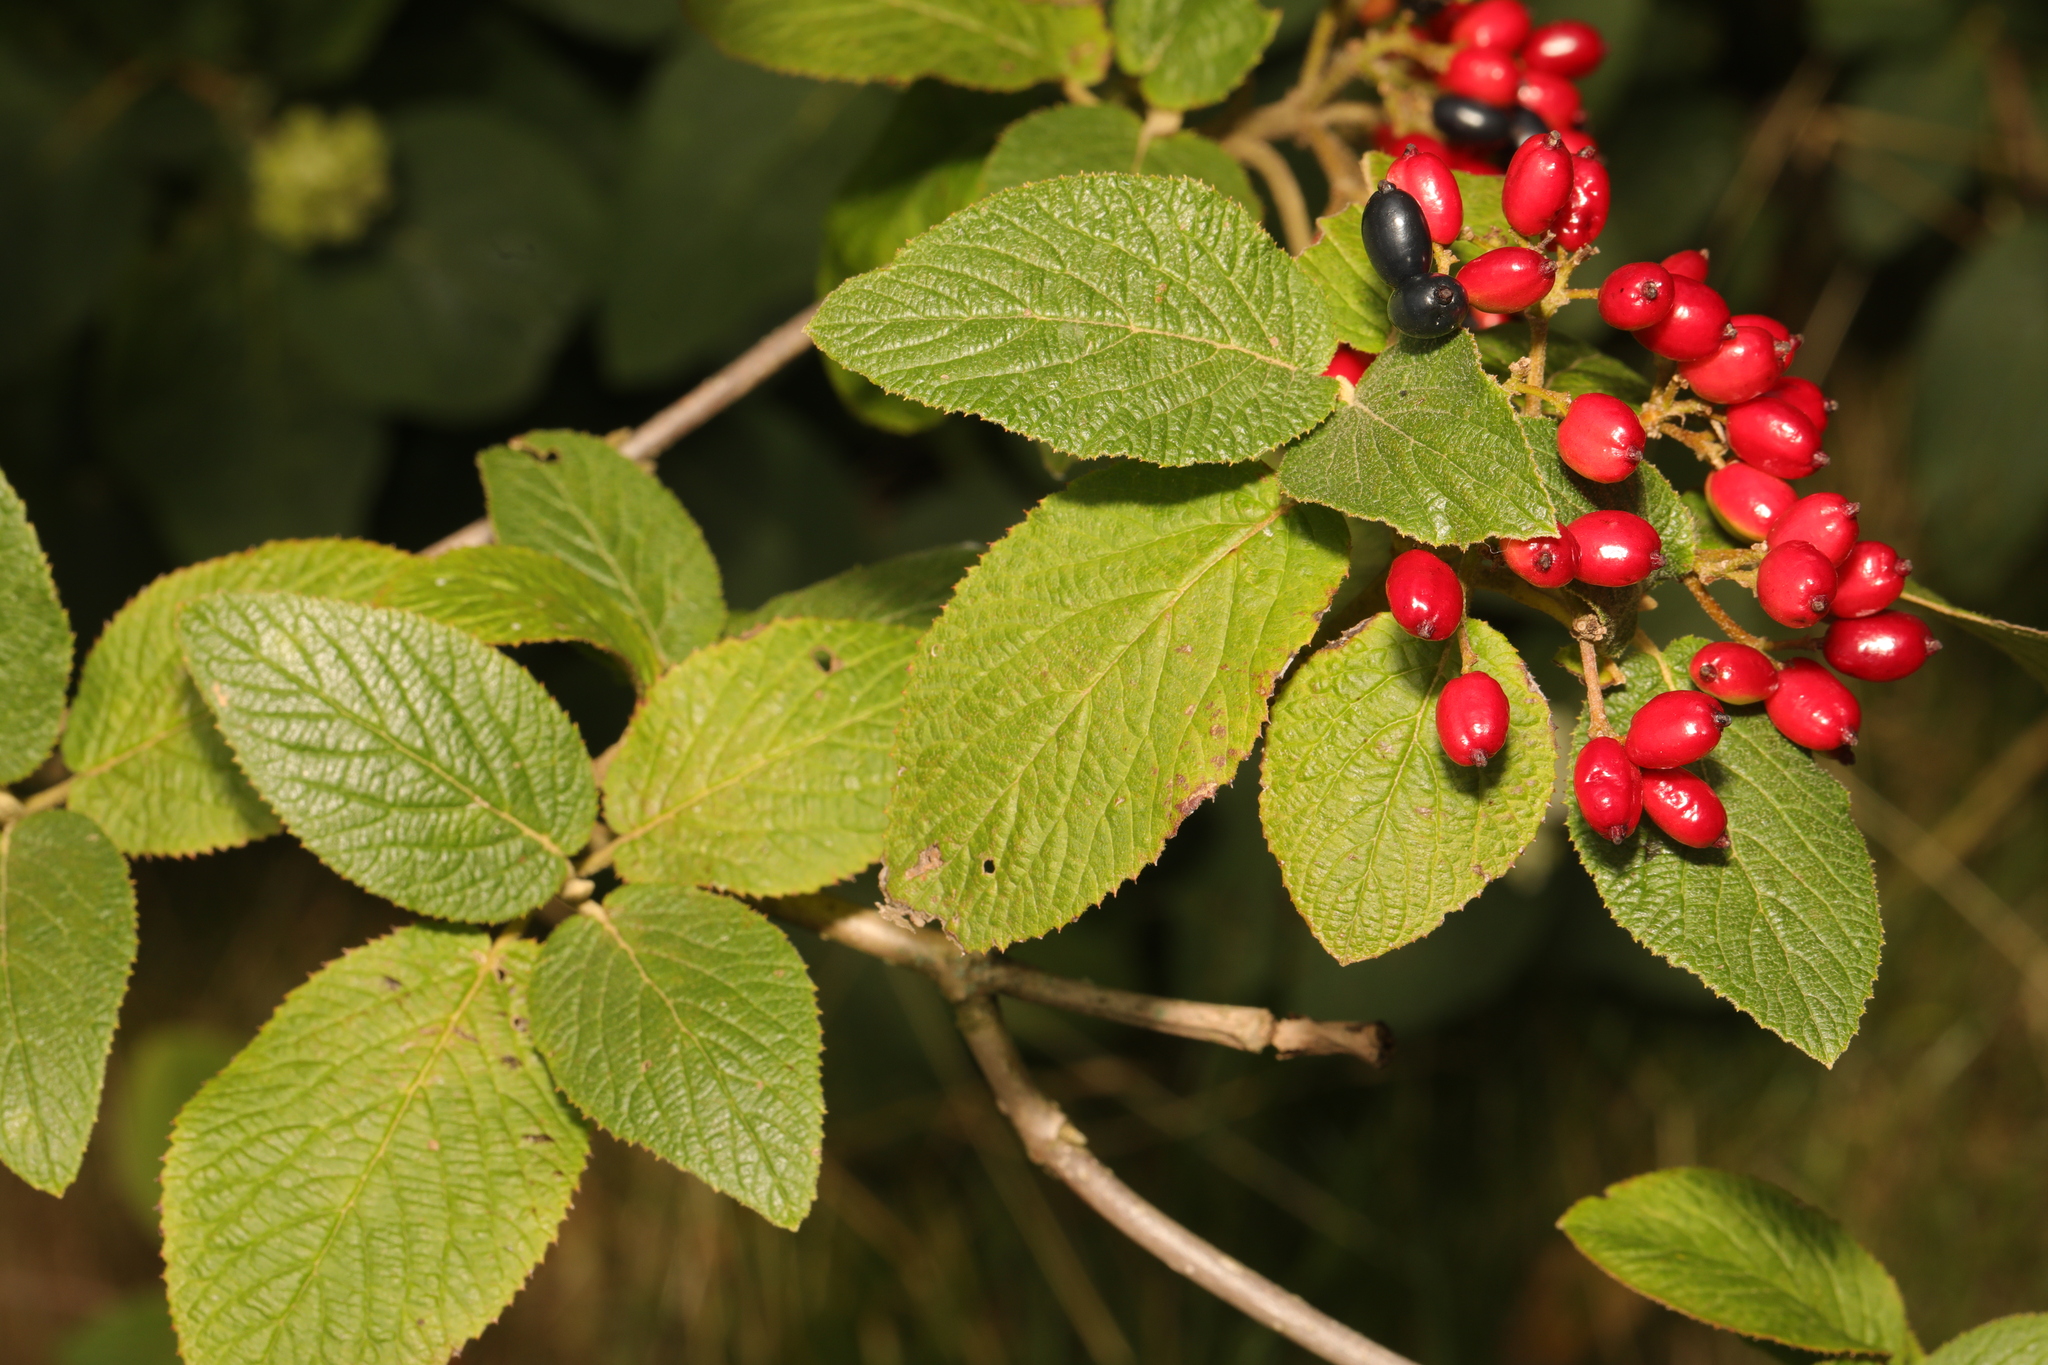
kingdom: Plantae
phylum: Tracheophyta
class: Magnoliopsida
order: Dipsacales
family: Viburnaceae
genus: Viburnum
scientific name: Viburnum lantana
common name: Wayfaring tree
